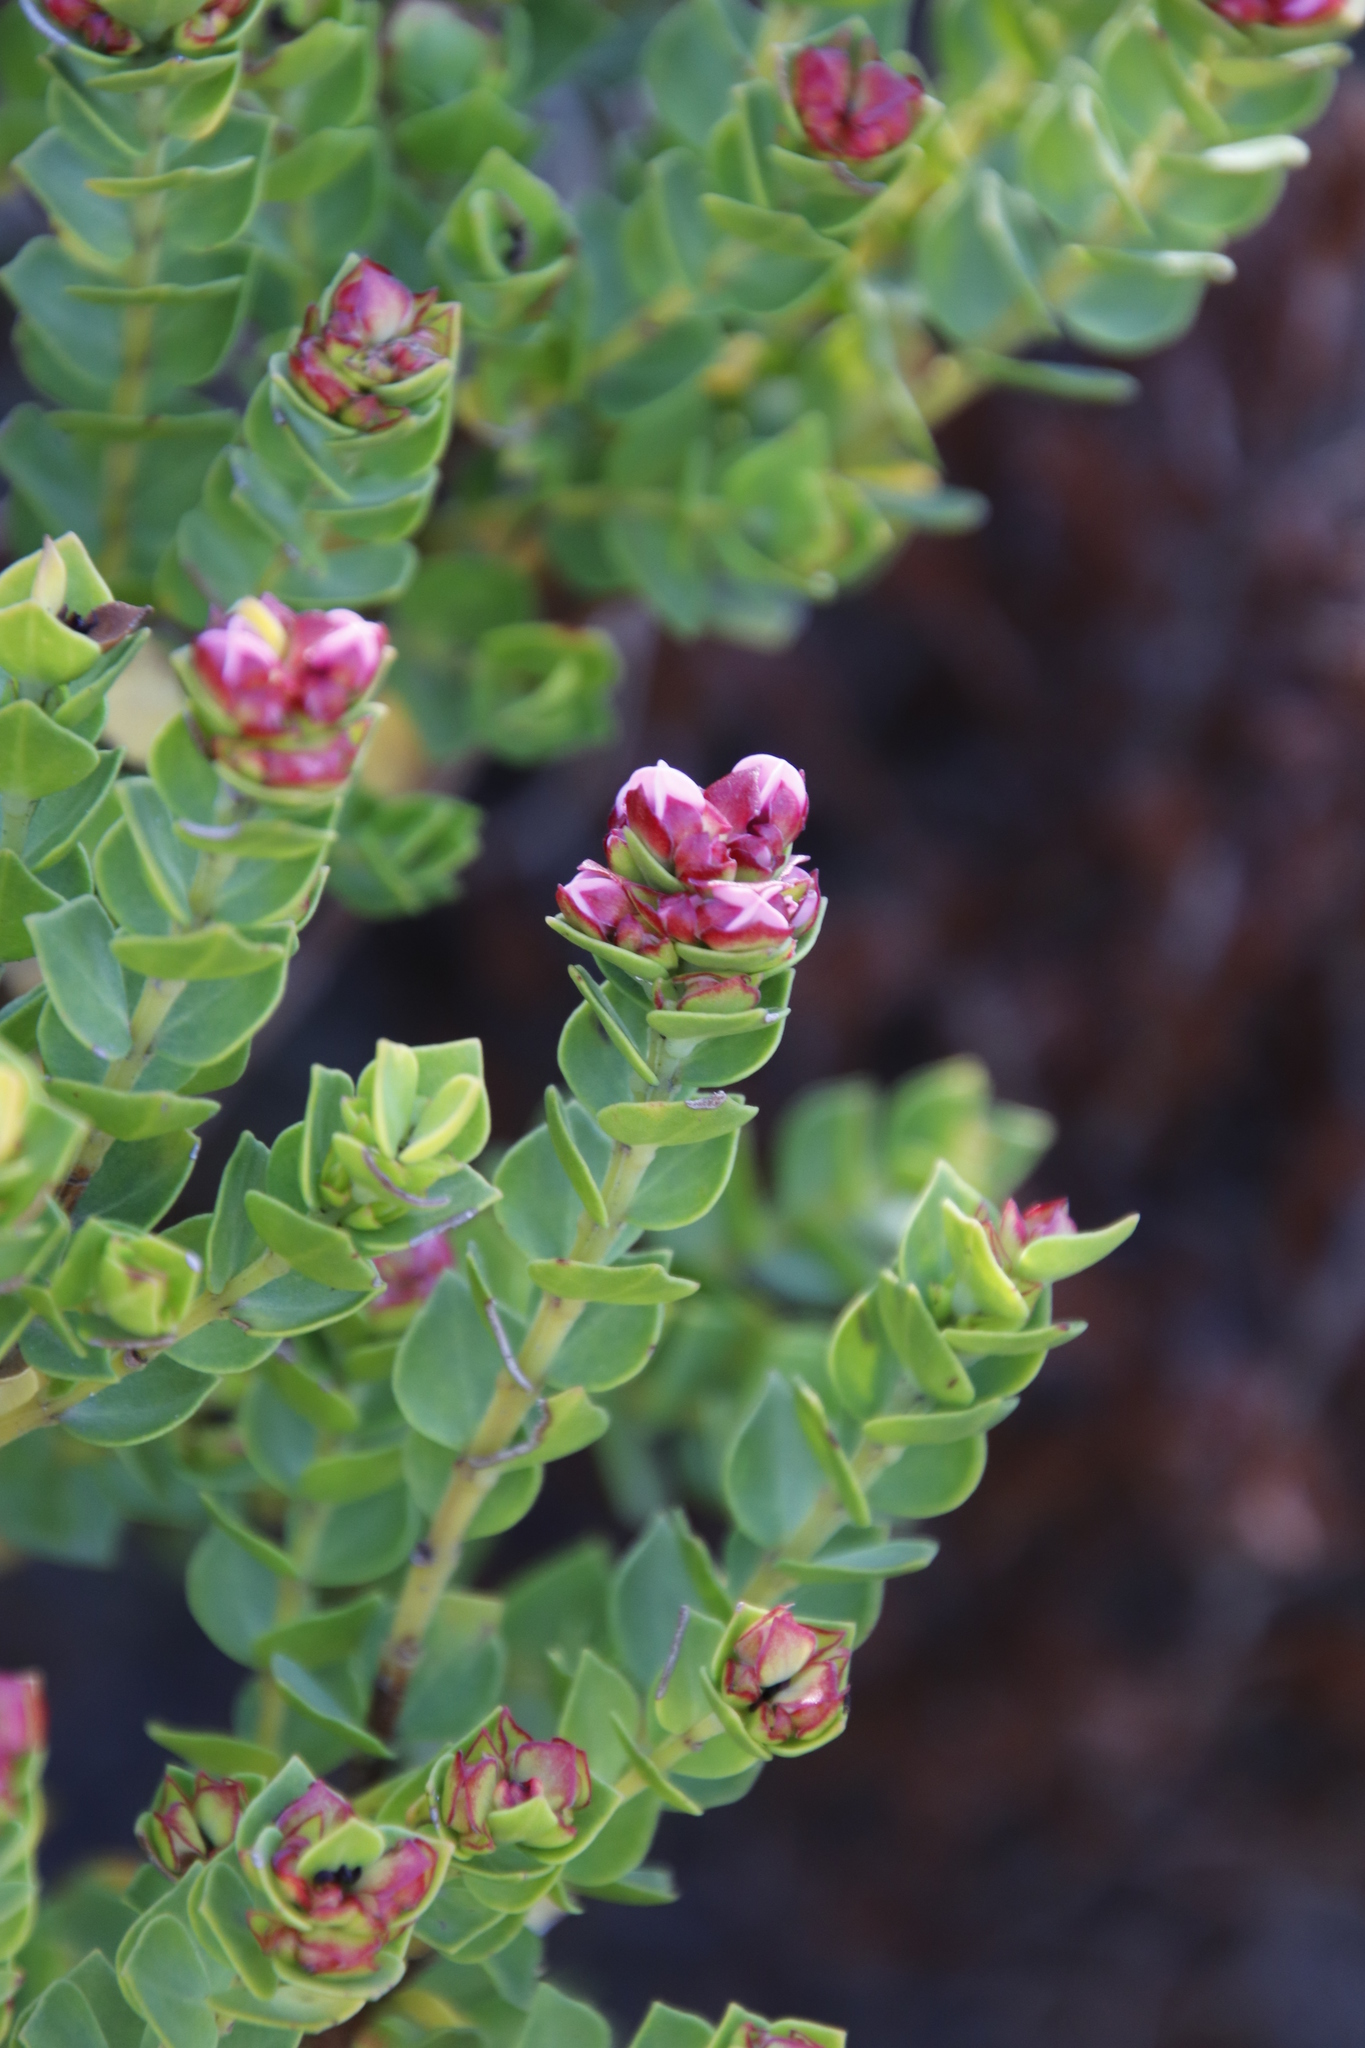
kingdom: Plantae
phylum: Tracheophyta
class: Magnoliopsida
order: Myrtales
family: Penaeaceae
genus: Brachysiphon
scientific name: Brachysiphon fucatus
